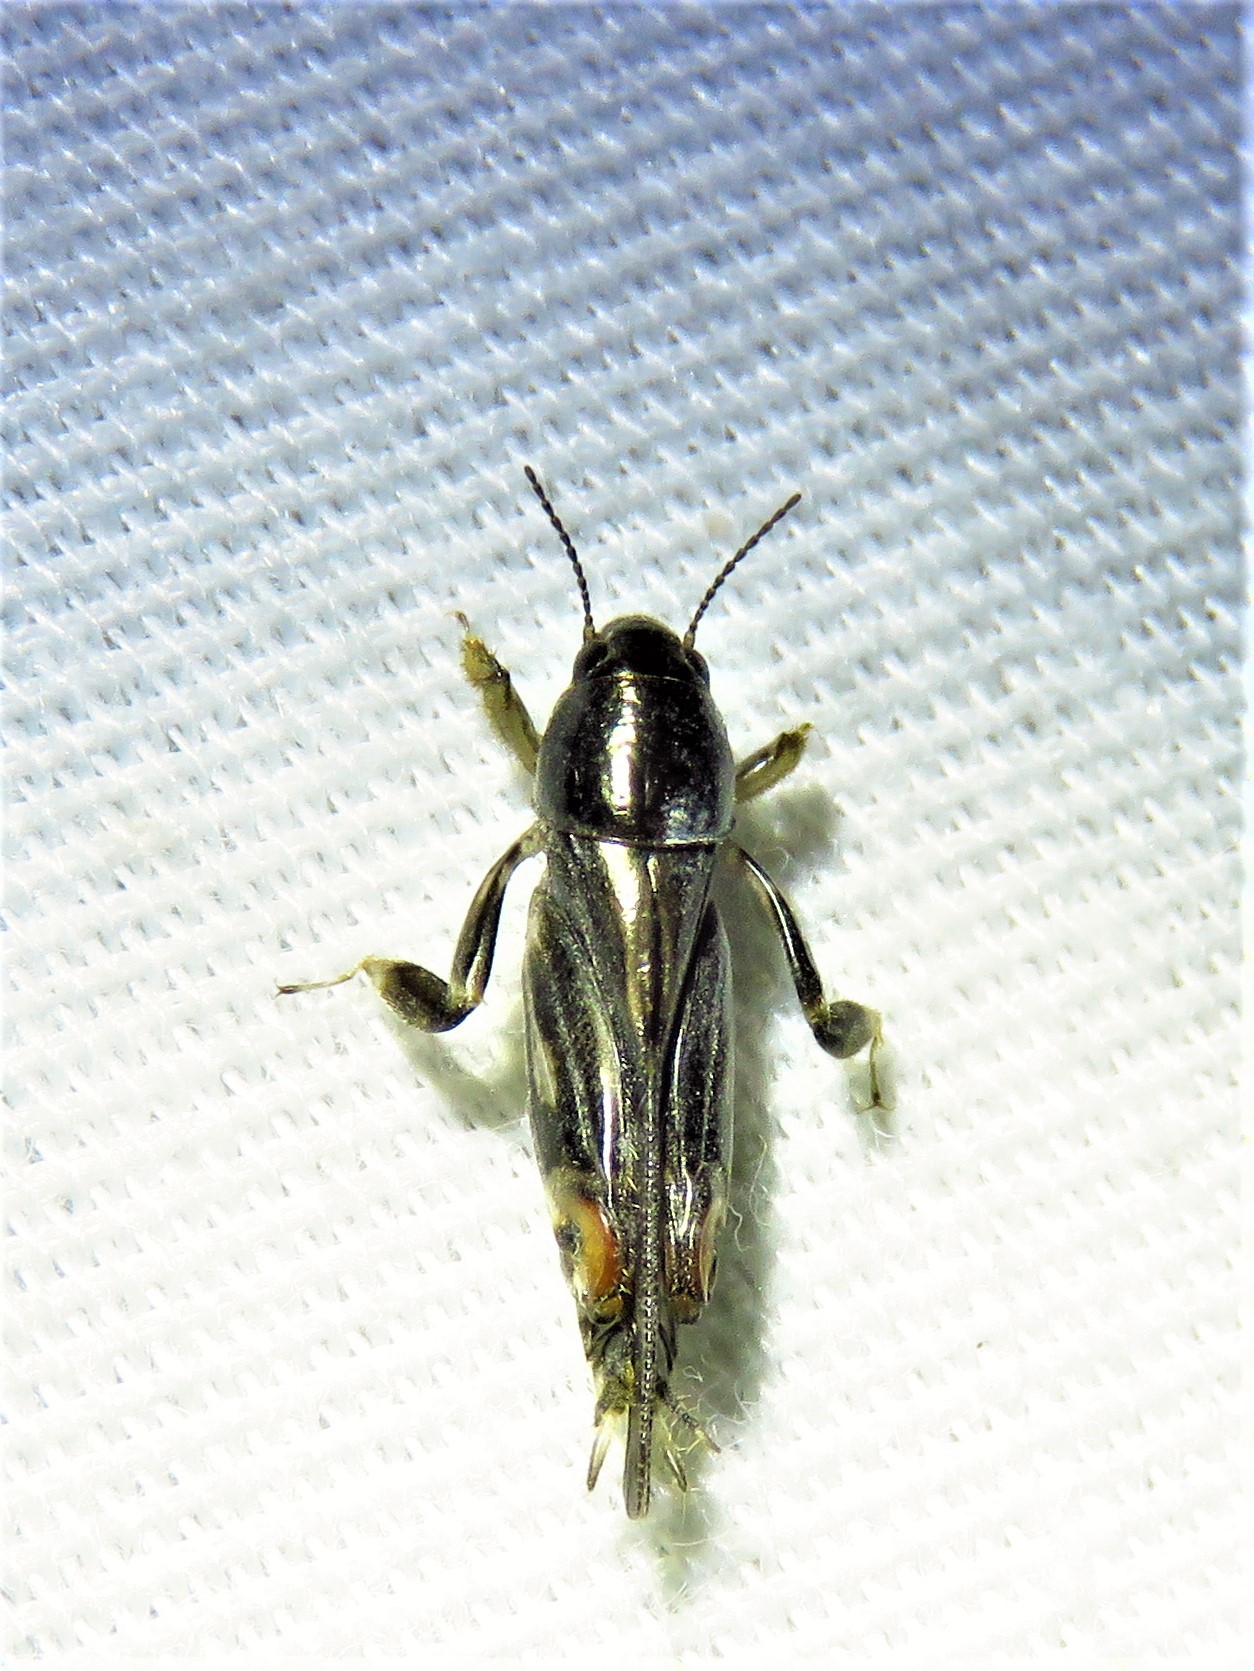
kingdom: Animalia
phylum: Arthropoda
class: Insecta
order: Orthoptera
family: Tridactylidae
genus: Neotridactylus
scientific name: Neotridactylus apicialis
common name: Larger pygmy locust
